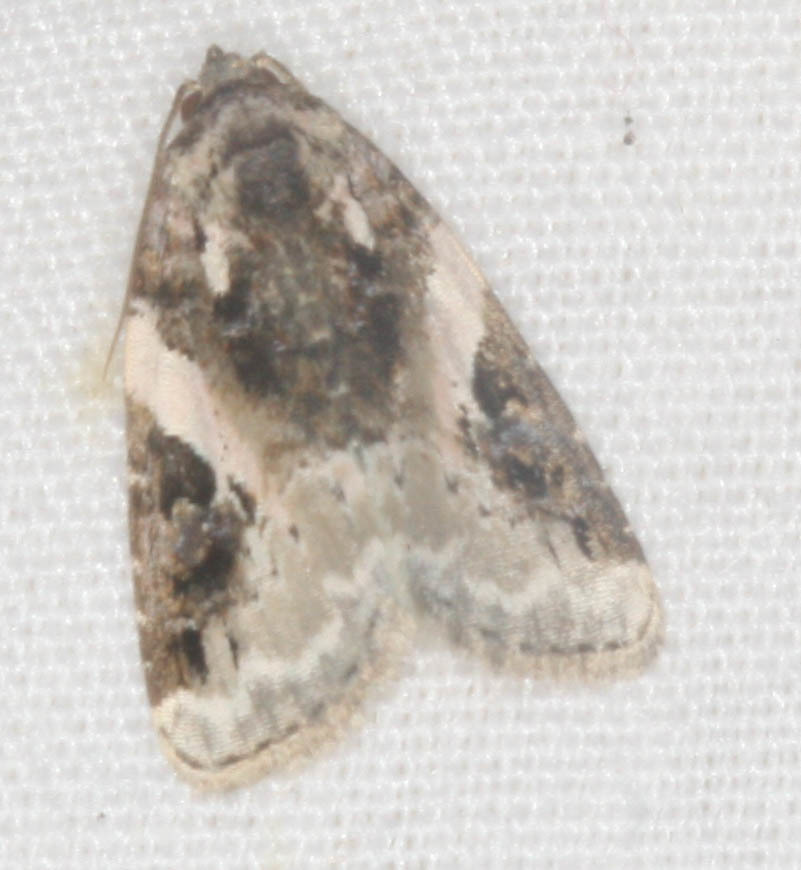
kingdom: Animalia
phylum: Arthropoda
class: Insecta
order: Lepidoptera
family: Noctuidae
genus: Pseudeustrotia
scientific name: Pseudeustrotia carneola
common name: Pink-barred lithacodia moth
